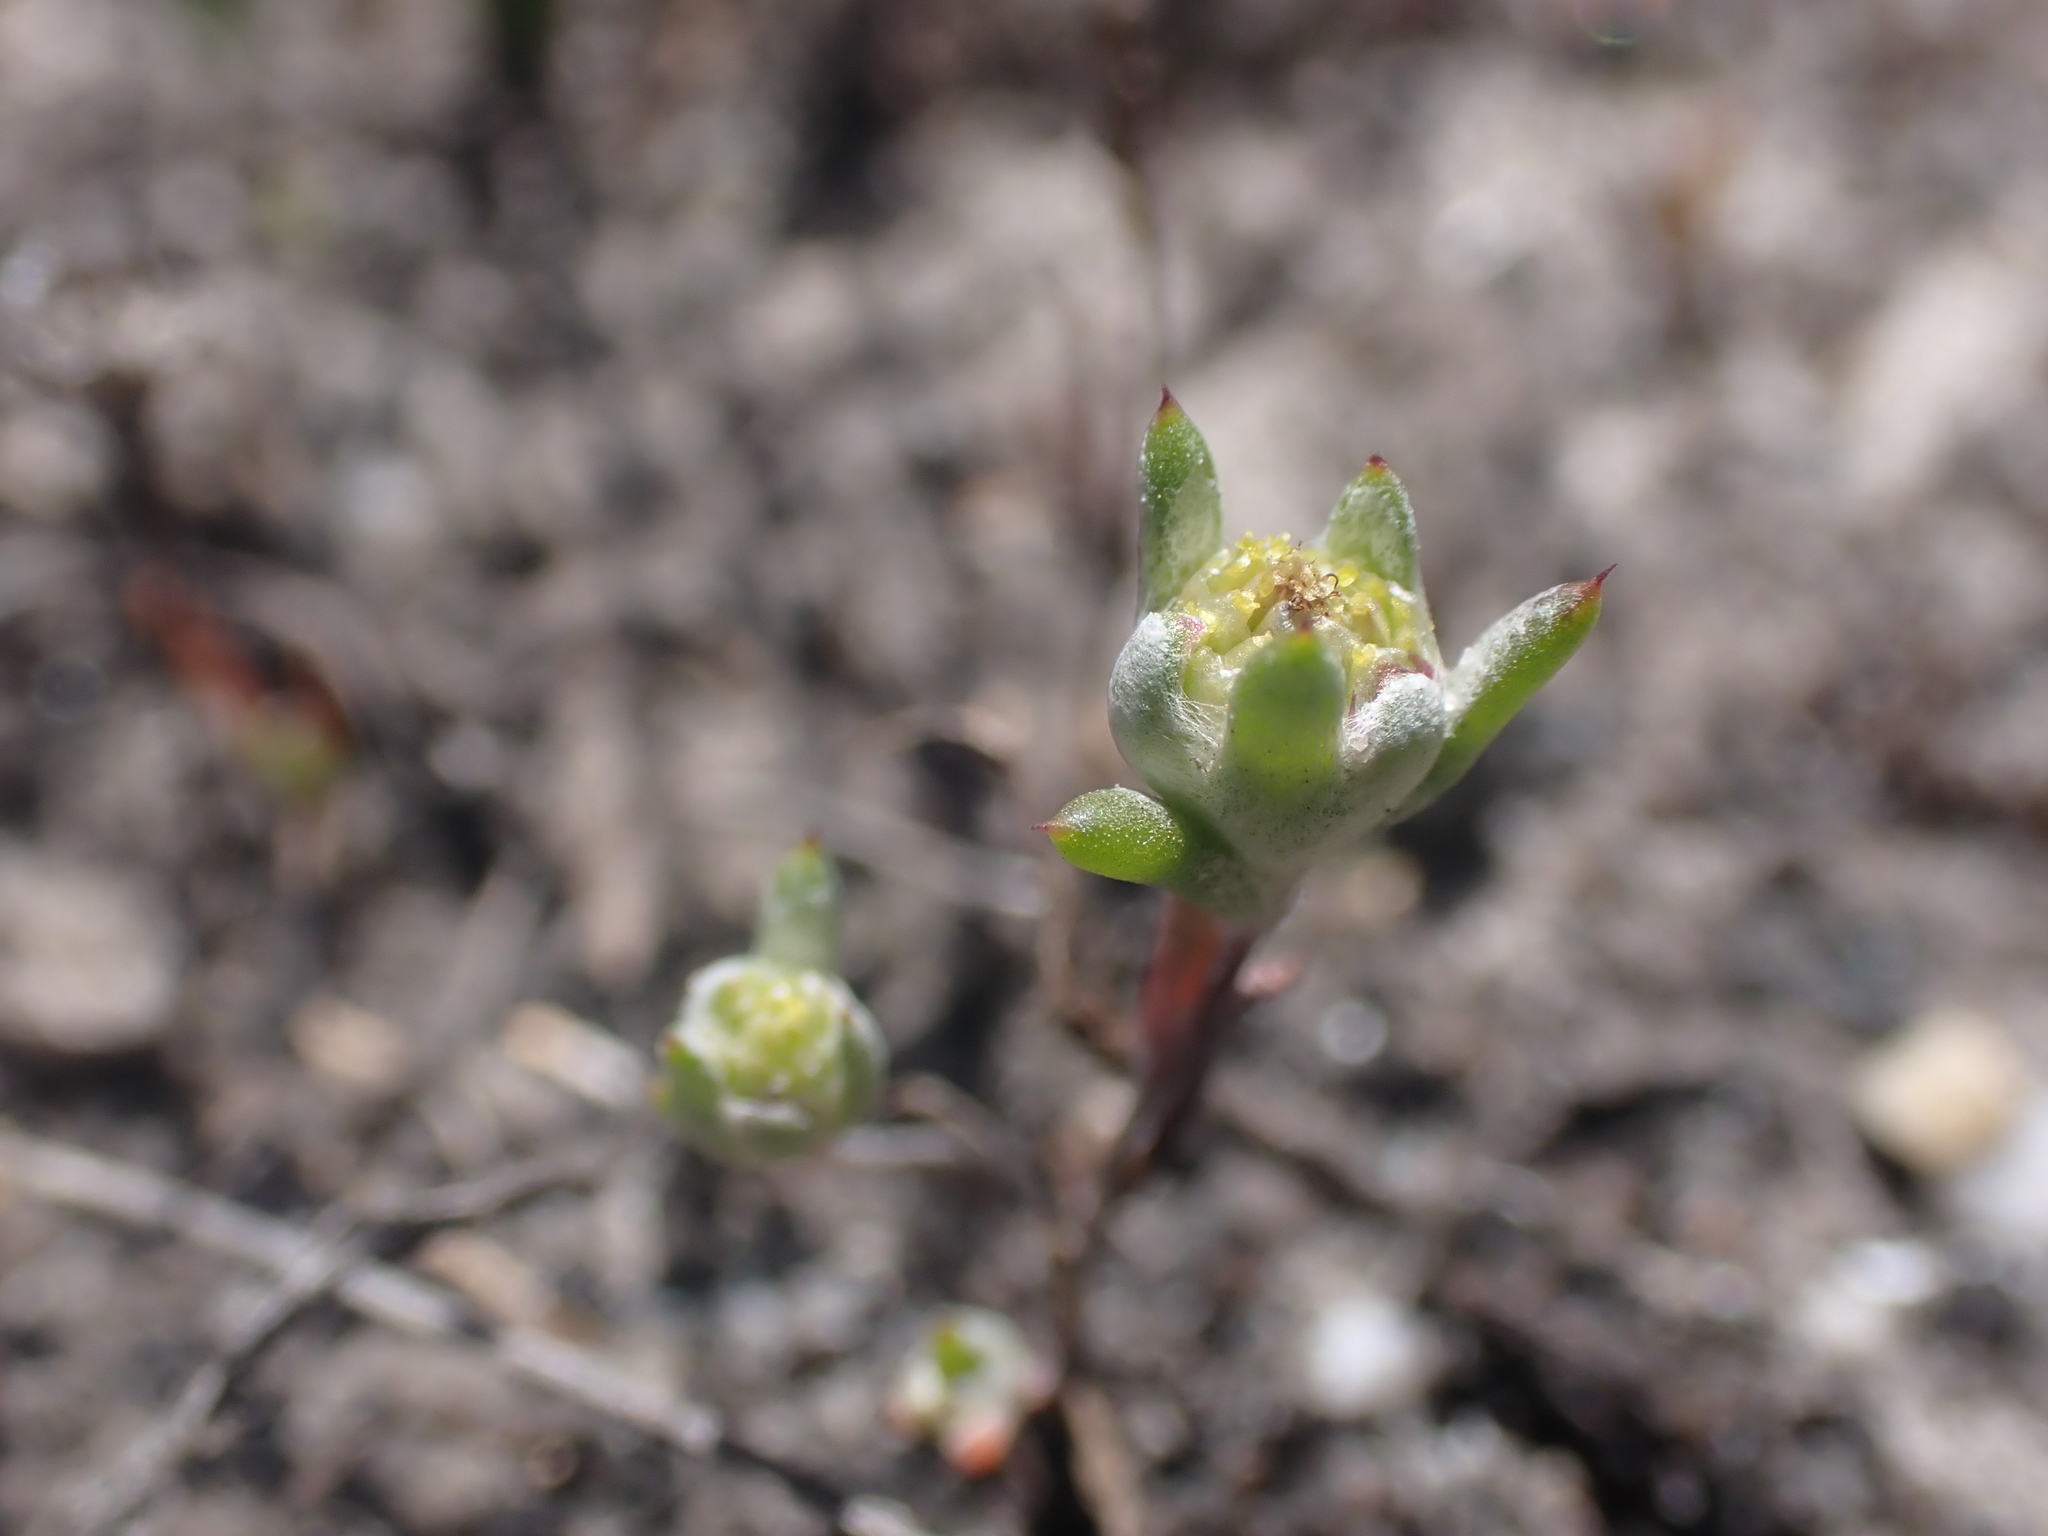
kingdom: Plantae
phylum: Tracheophyta
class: Magnoliopsida
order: Asterales
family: Asteraceae
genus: Angianthus
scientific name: Angianthus preissianus
